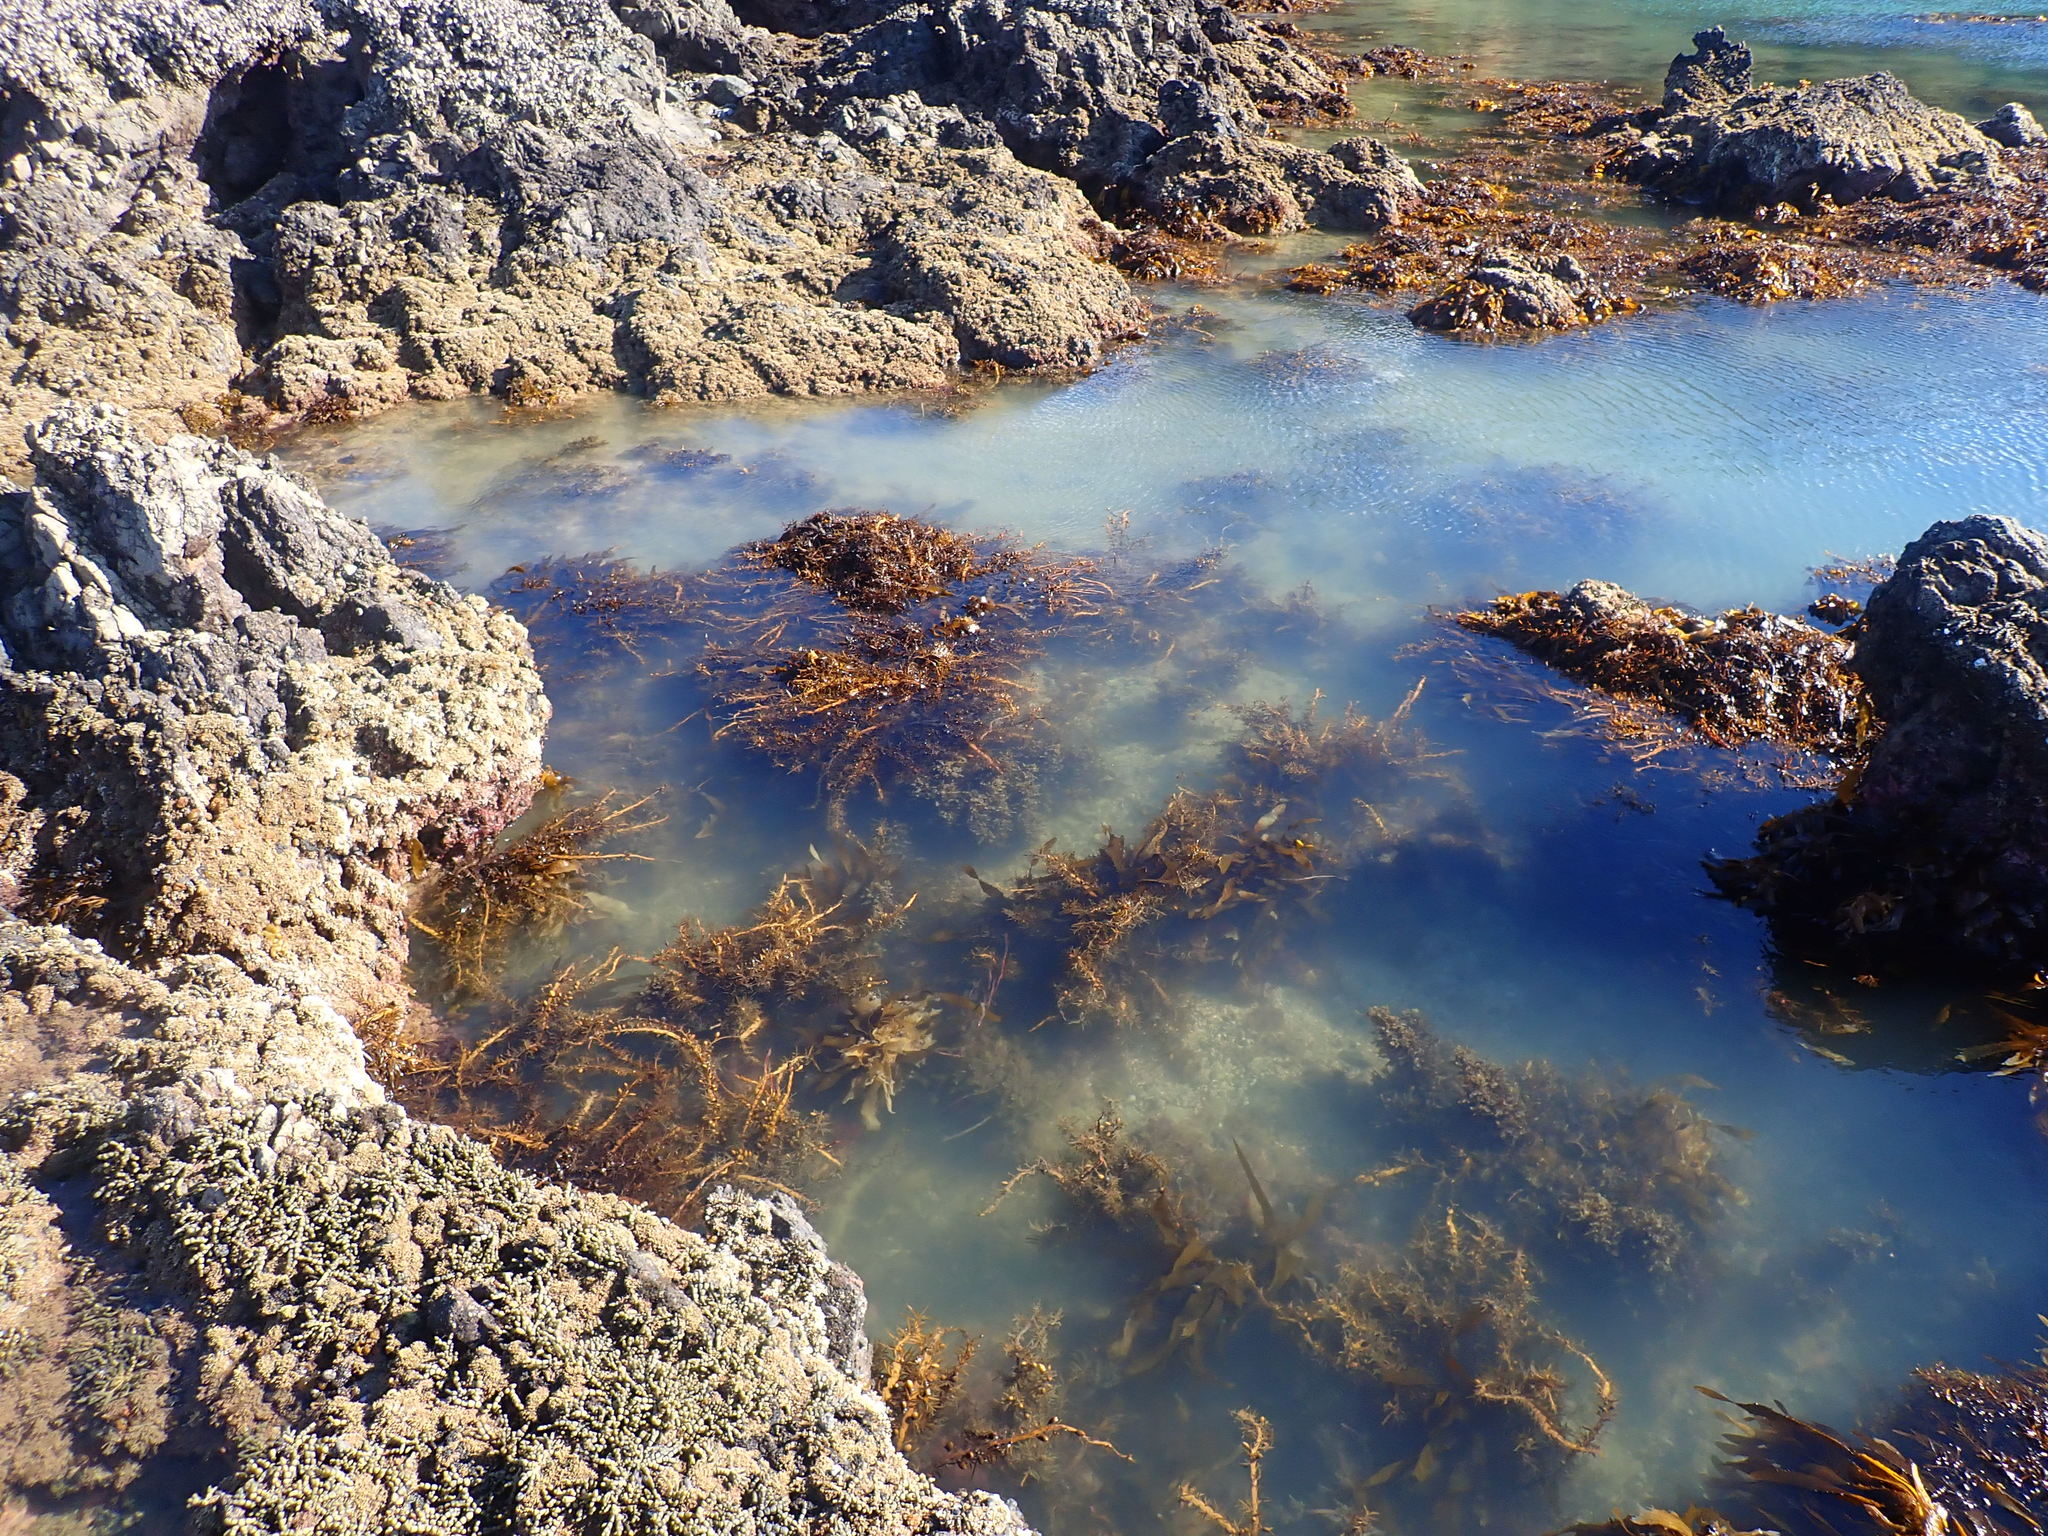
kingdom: Chromista
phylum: Ochrophyta
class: Phaeophyceae
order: Fucales
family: Sargassaceae
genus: Carpophyllum
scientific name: Carpophyllum maschalocarpum
